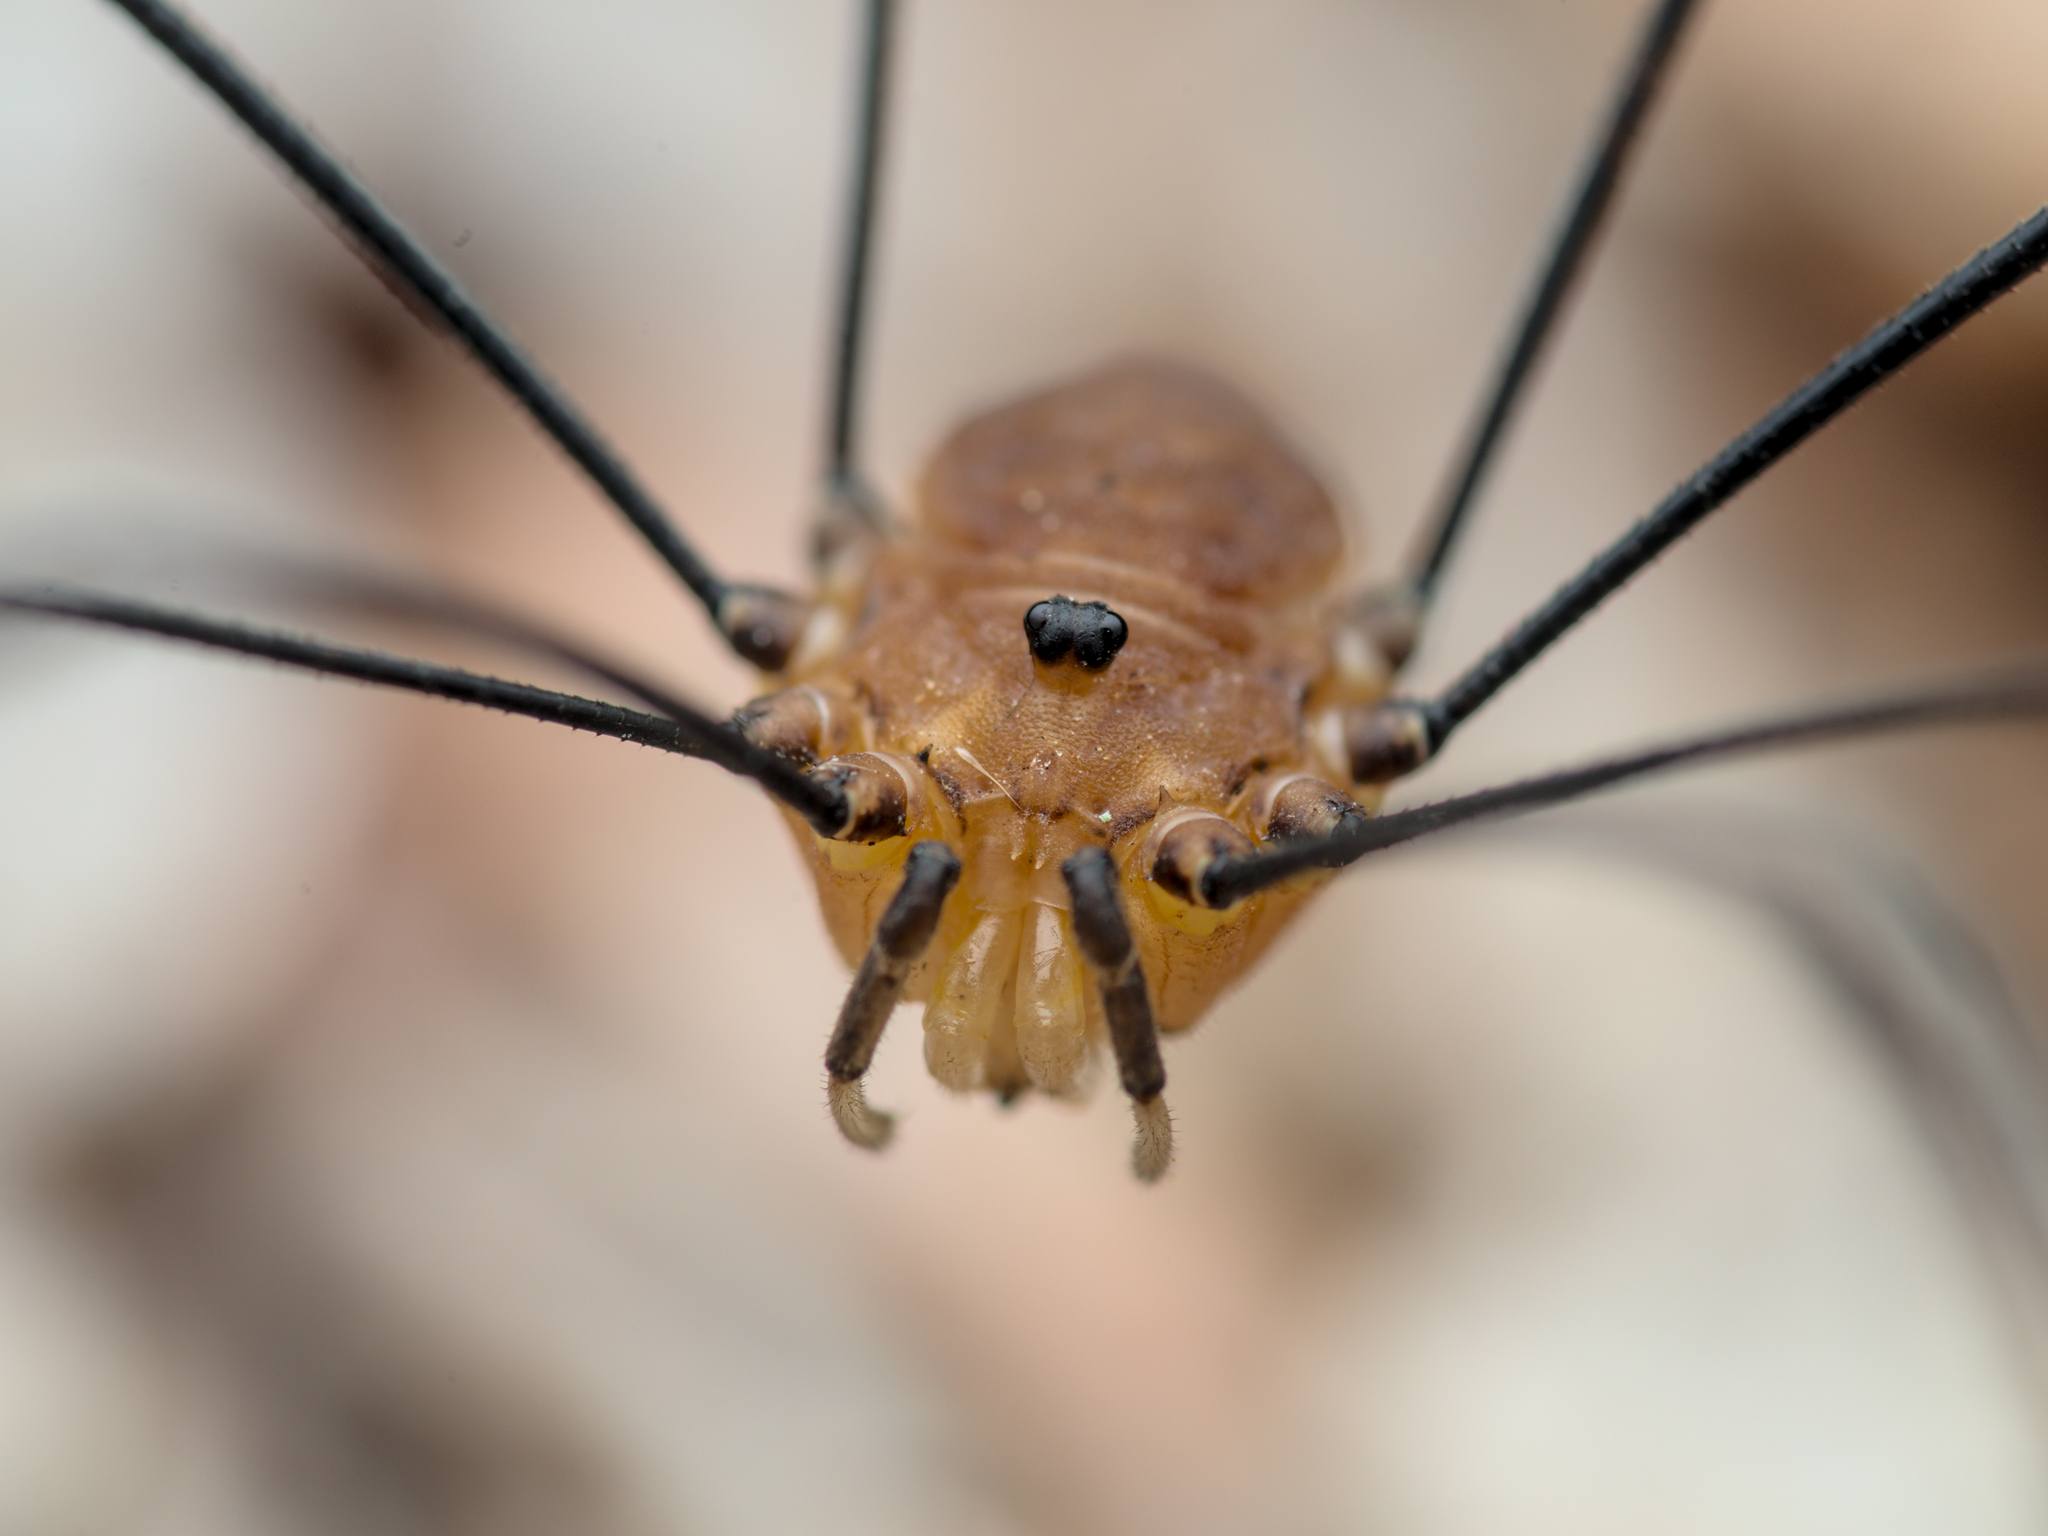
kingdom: Animalia
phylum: Arthropoda
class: Arachnida
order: Opiliones
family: Sclerosomatidae
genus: Leiobunum
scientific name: Leiobunum rotundum
